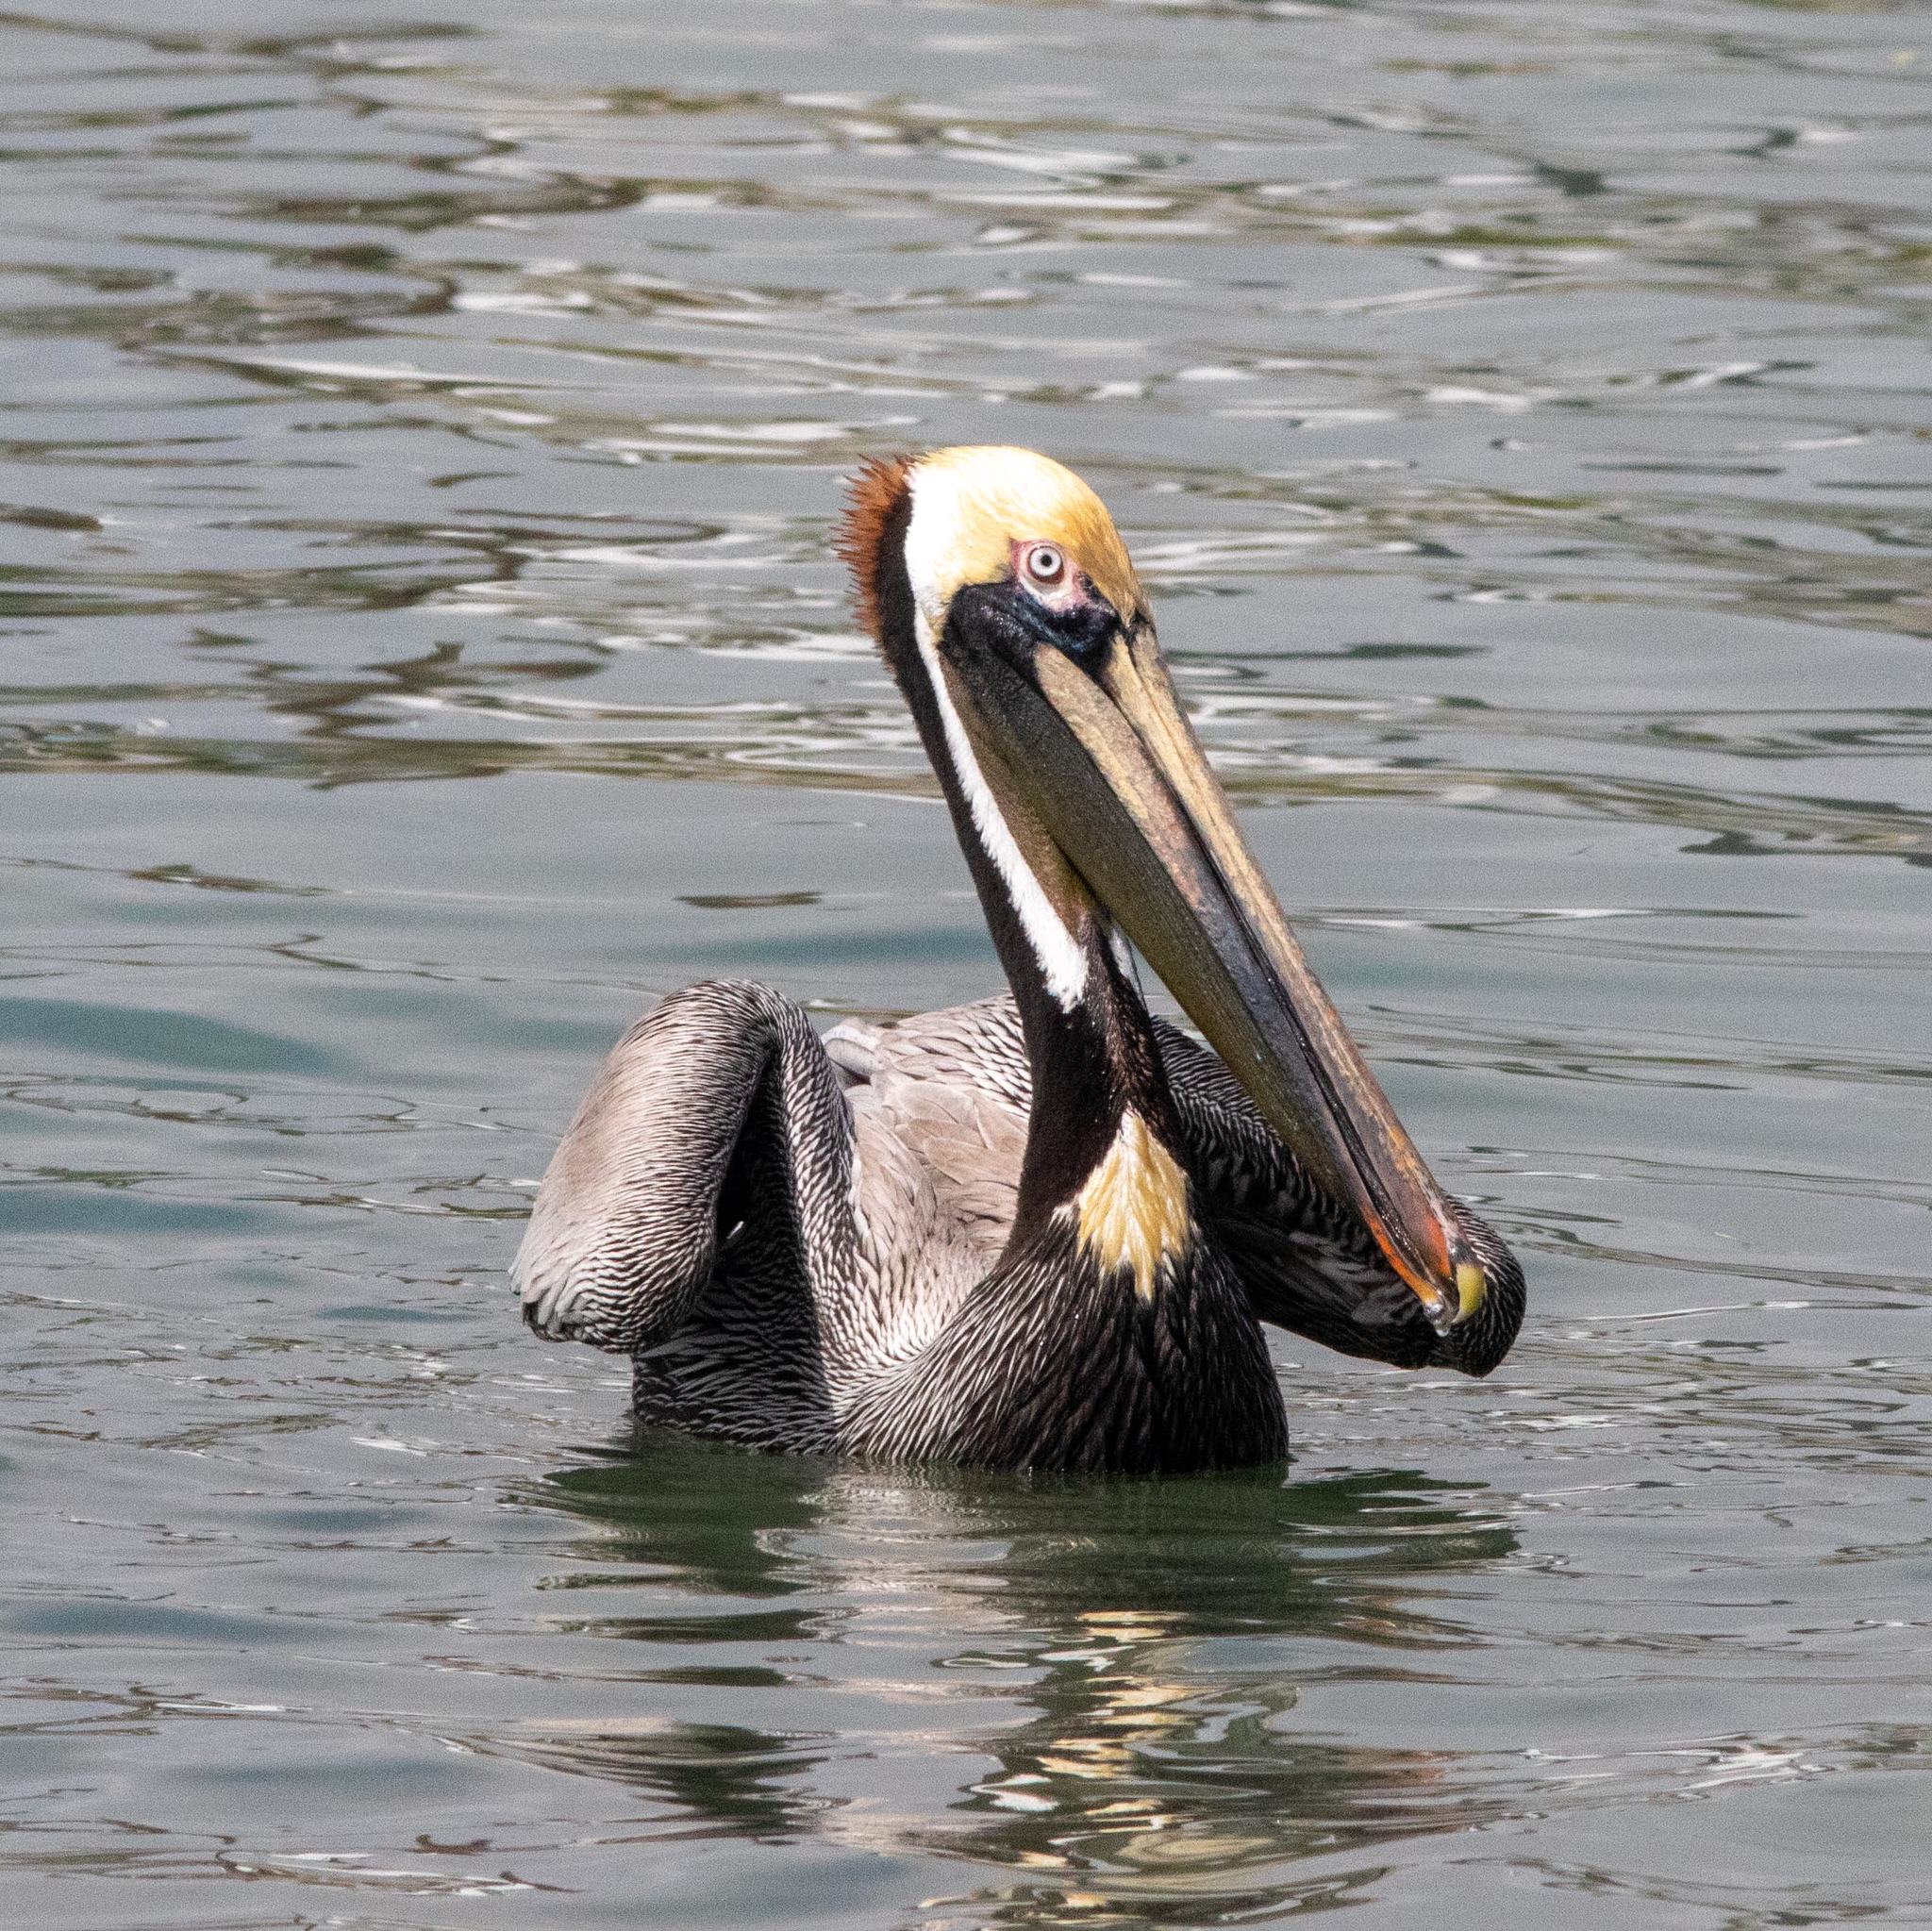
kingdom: Animalia
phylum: Chordata
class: Aves
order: Pelecaniformes
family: Pelecanidae
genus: Pelecanus
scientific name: Pelecanus occidentalis
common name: Brown pelican
